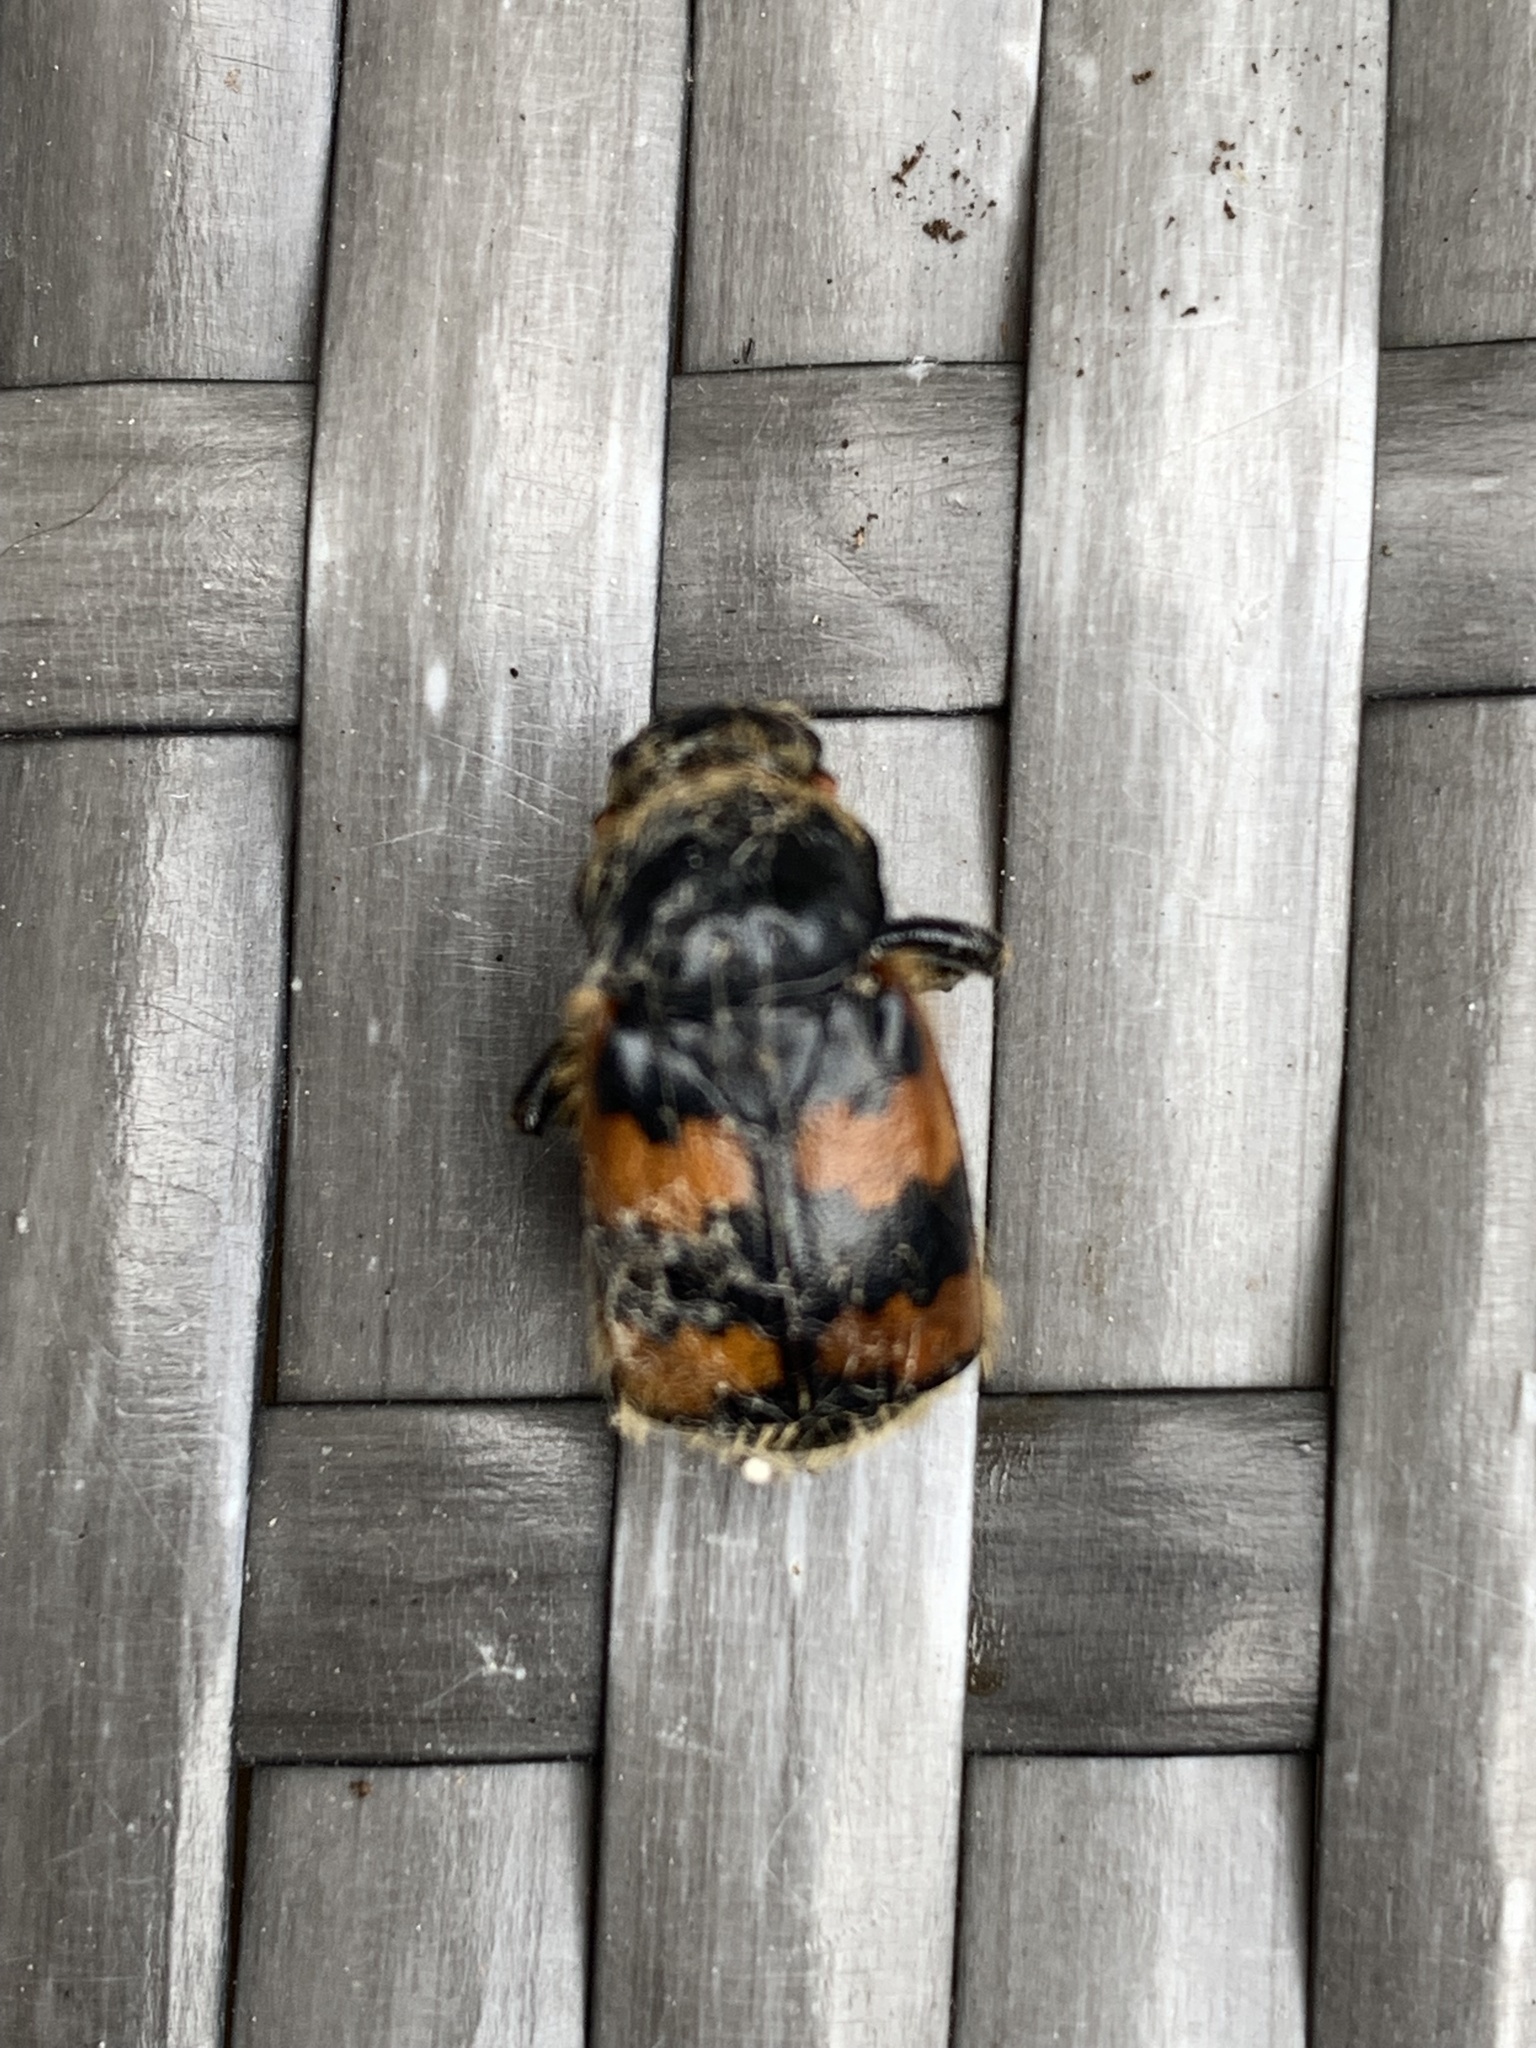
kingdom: Animalia
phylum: Arthropoda
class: Insecta
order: Coleoptera
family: Staphylinidae
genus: Nicrophorus
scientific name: Nicrophorus vespillo
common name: Common burying beetle
